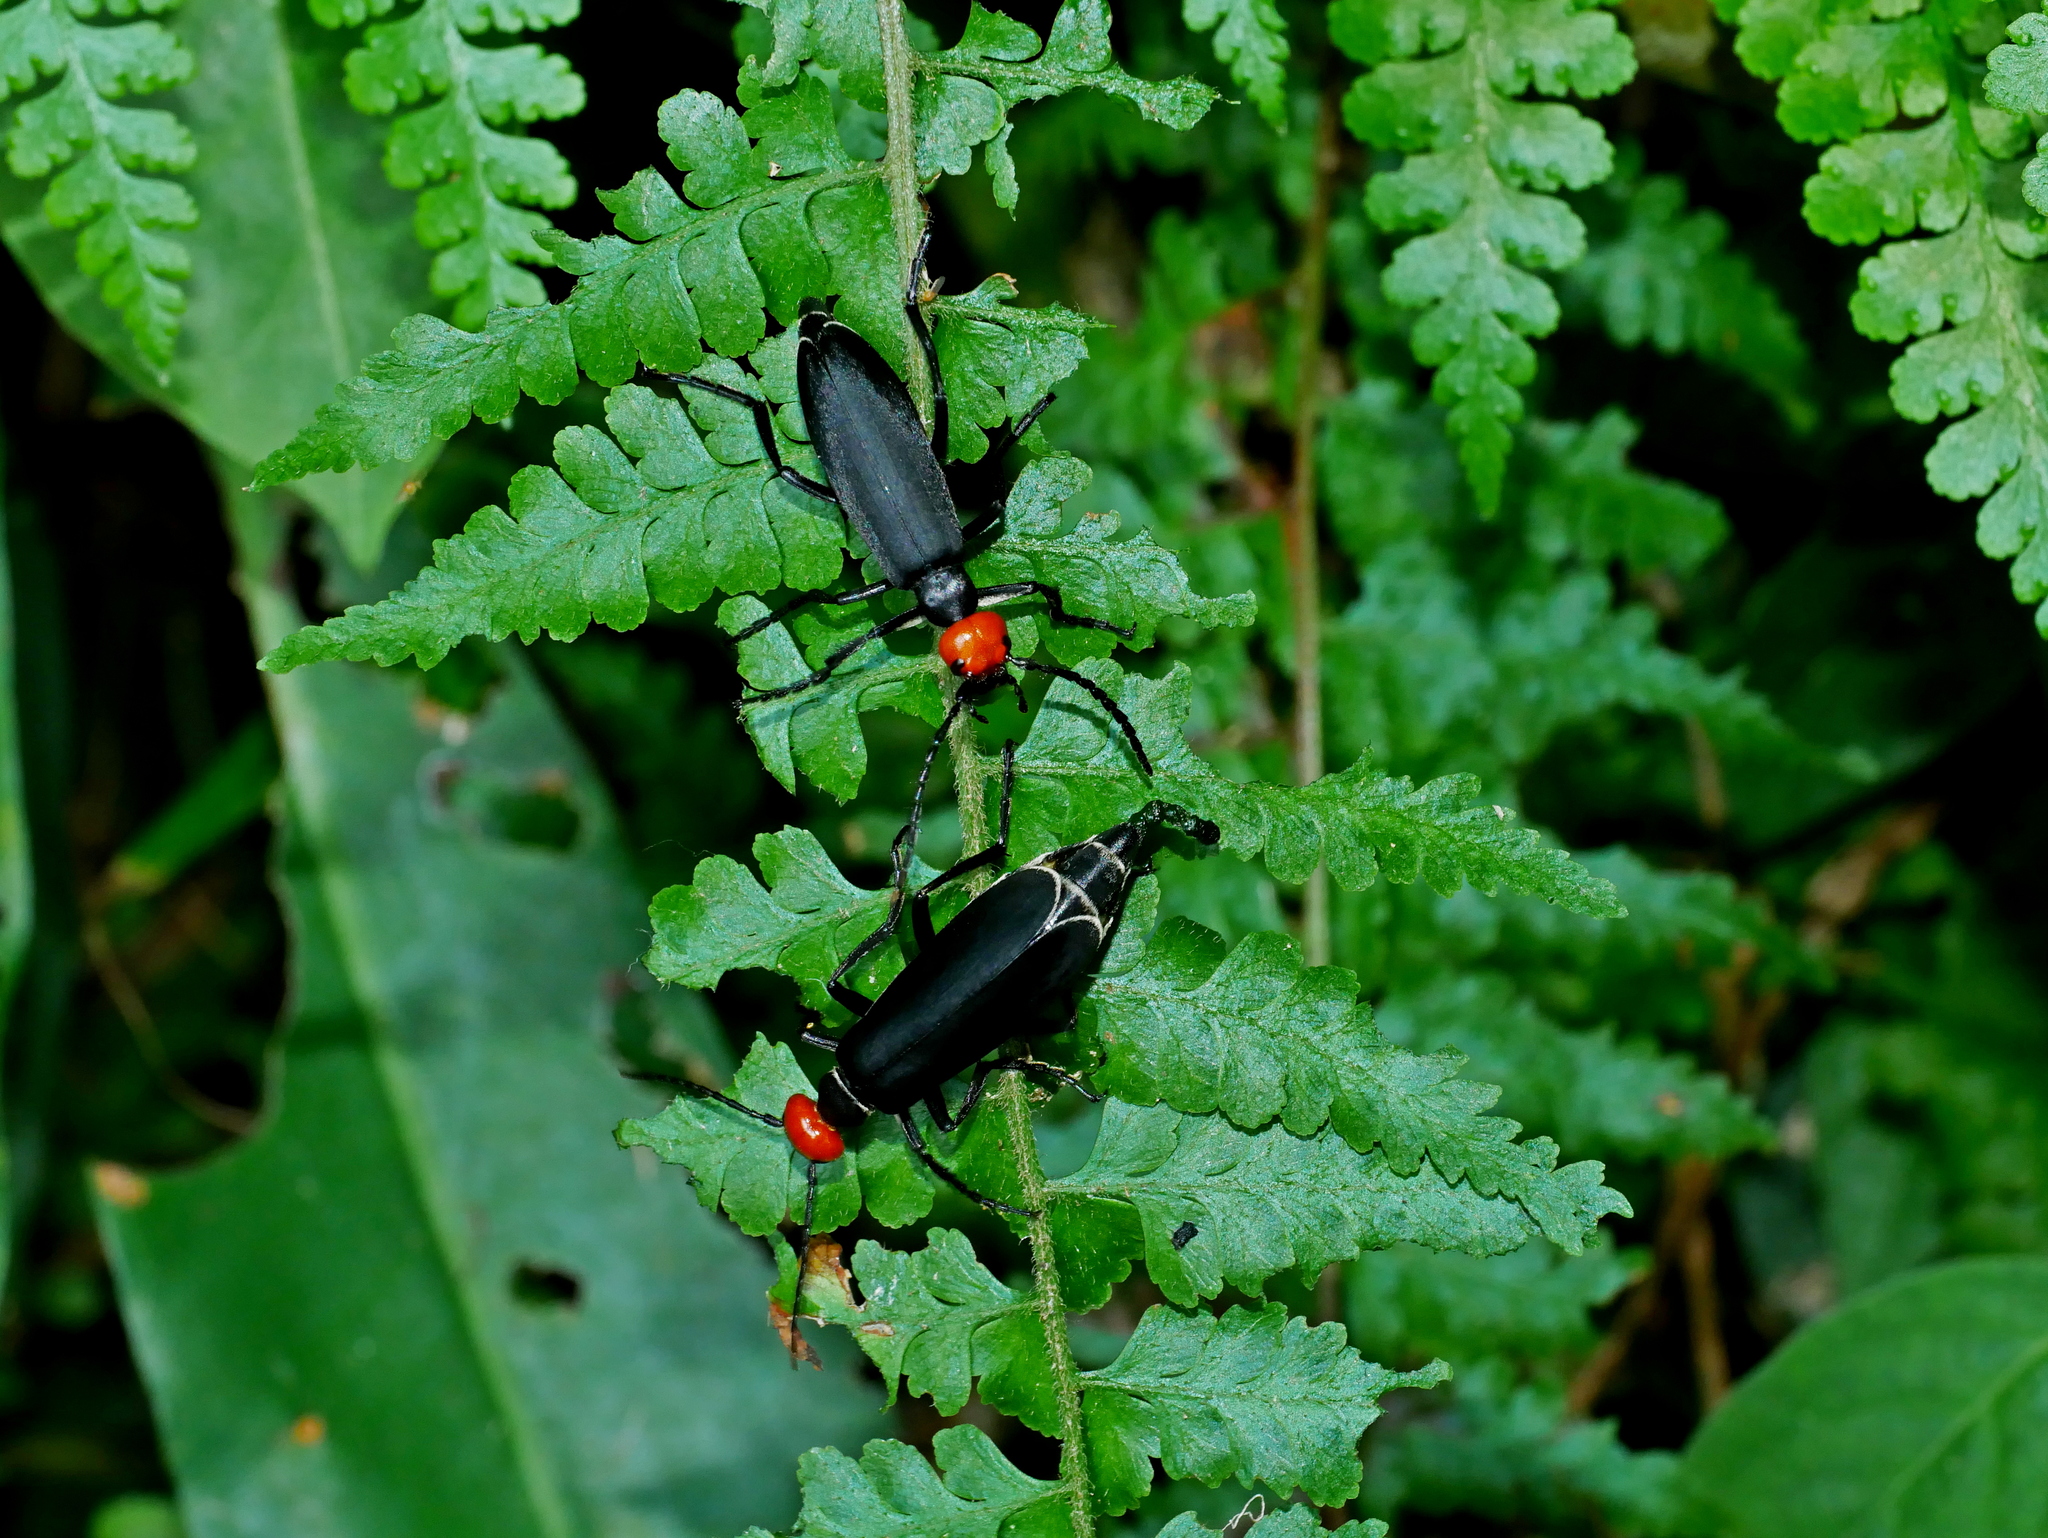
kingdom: Animalia
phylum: Arthropoda
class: Insecta
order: Coleoptera
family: Meloidae
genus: Epicauta
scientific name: Epicauta hirticornis
